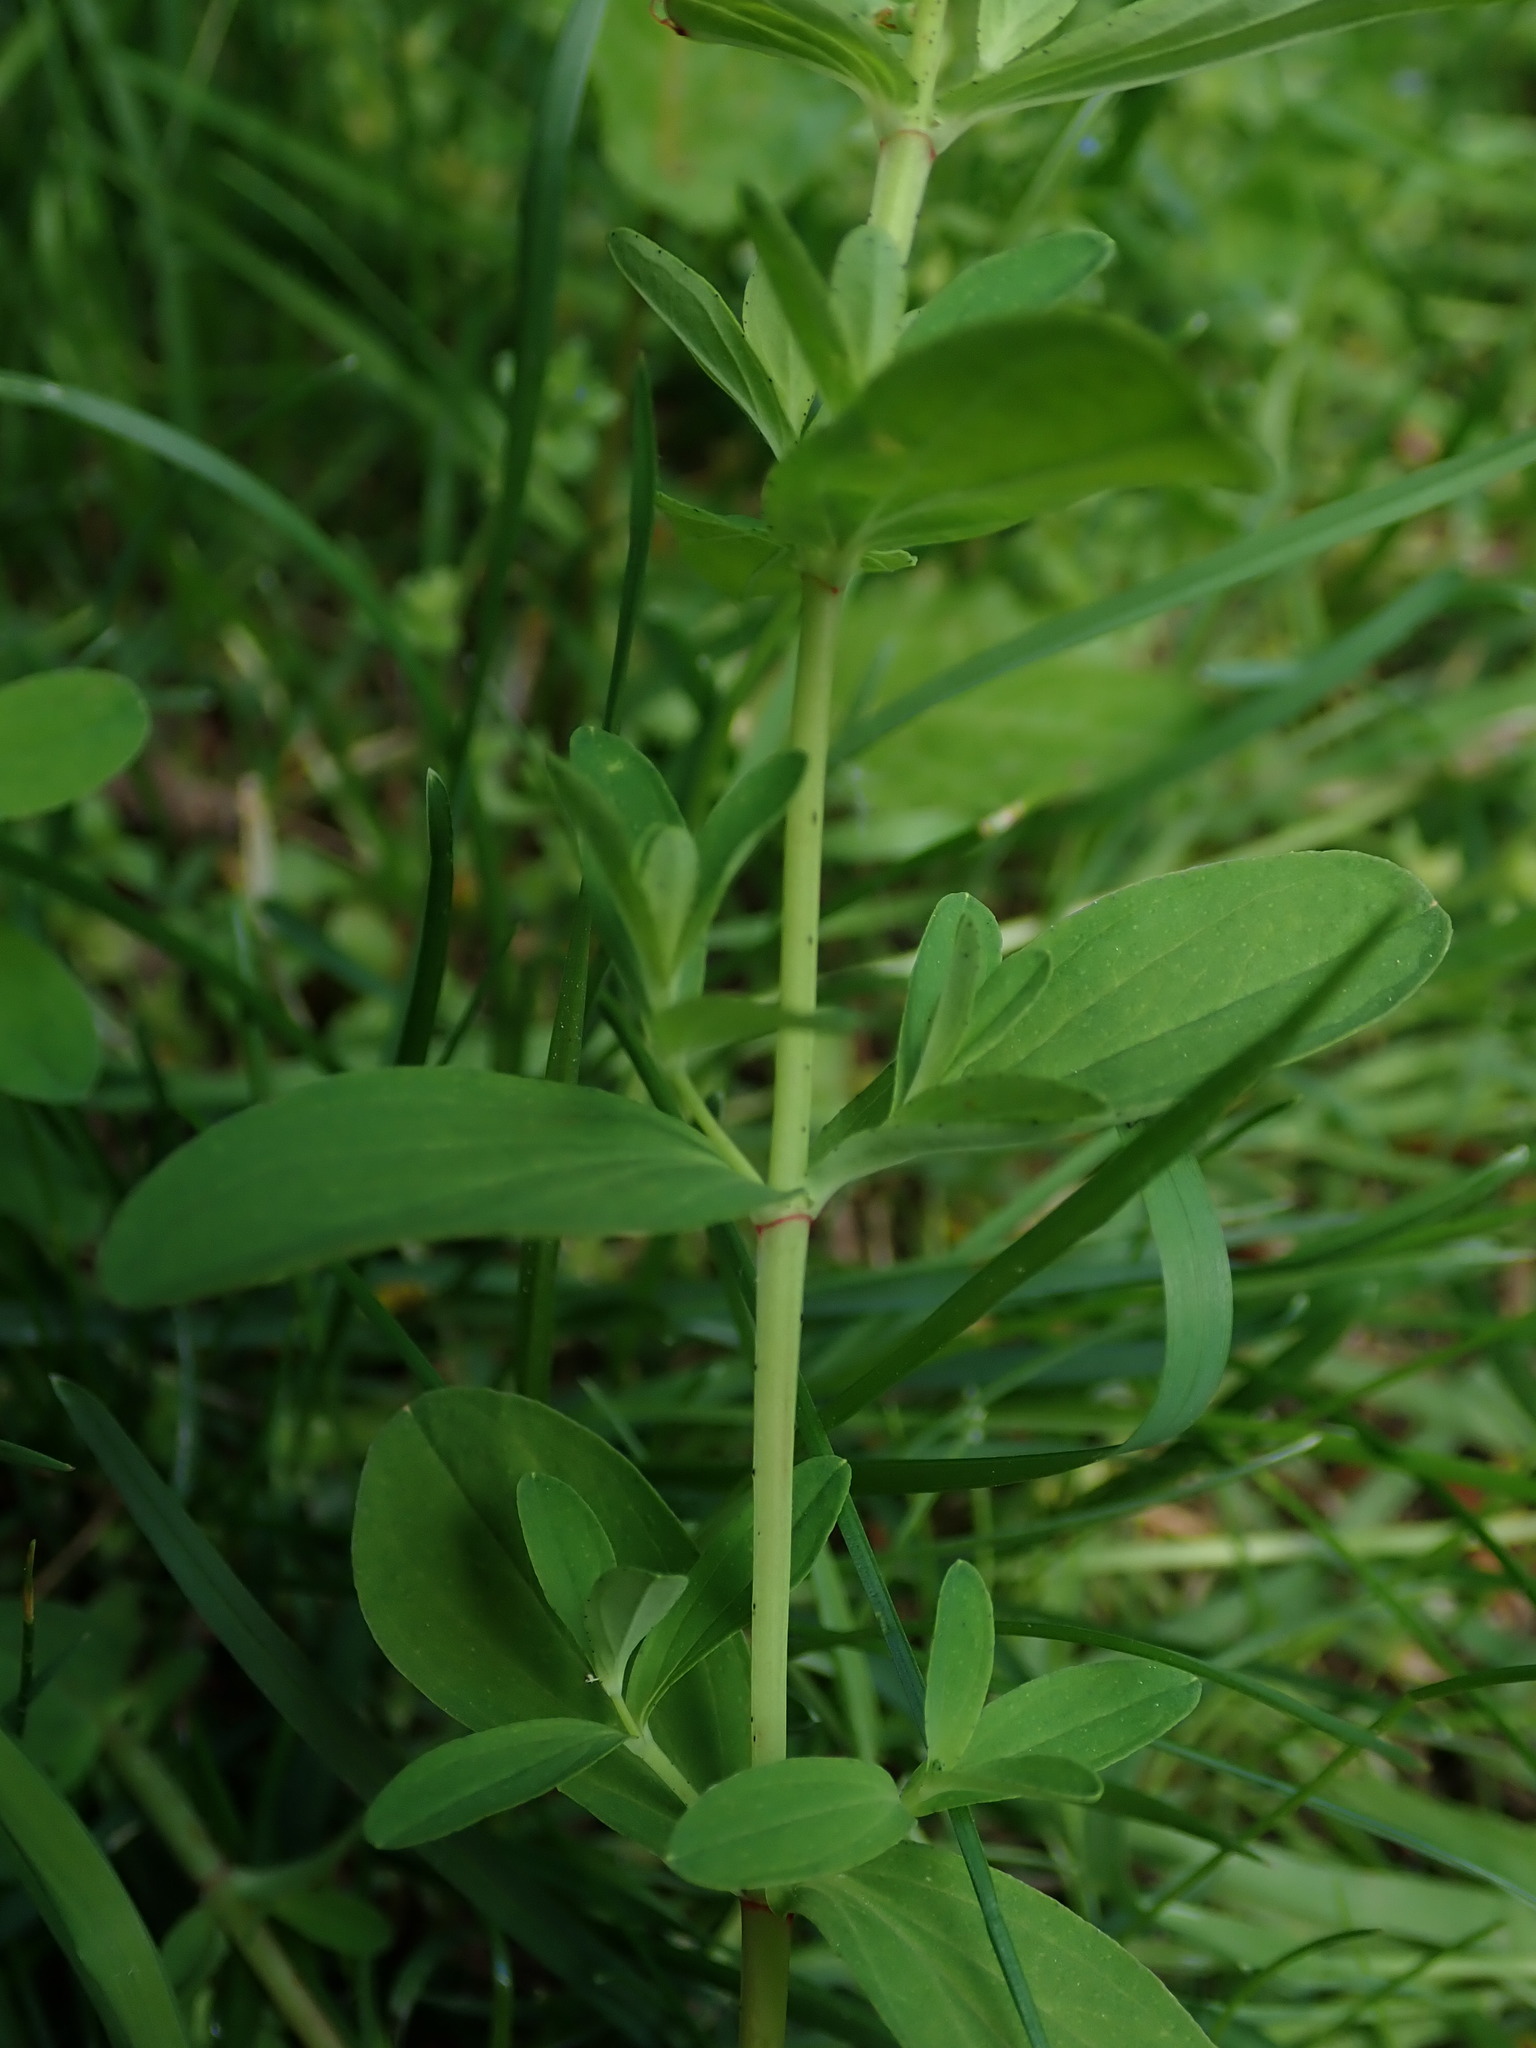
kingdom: Plantae
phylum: Tracheophyta
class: Magnoliopsida
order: Malpighiales
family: Hypericaceae
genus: Hypericum
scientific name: Hypericum perforatum
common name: Common st. johnswort
